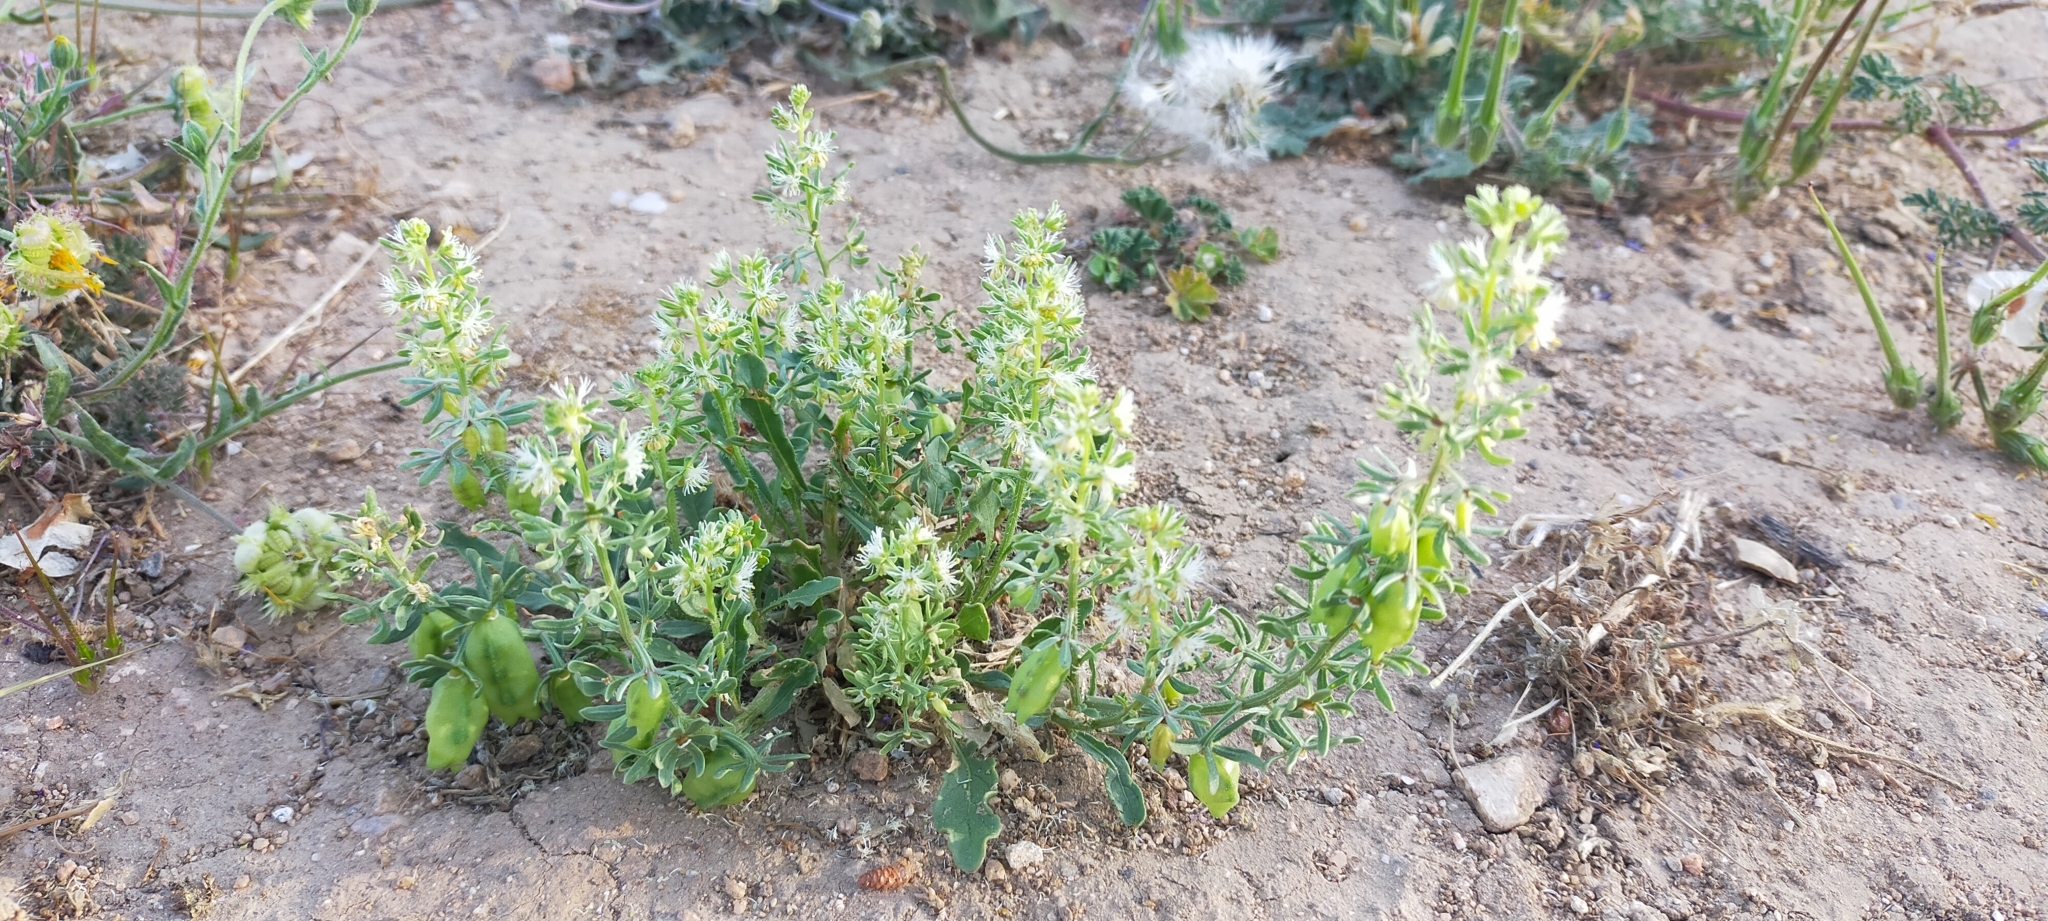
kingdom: Plantae
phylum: Tracheophyta
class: Magnoliopsida
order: Brassicales
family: Resedaceae
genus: Reseda
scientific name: Reseda phyteuma
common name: Corn mignonette
